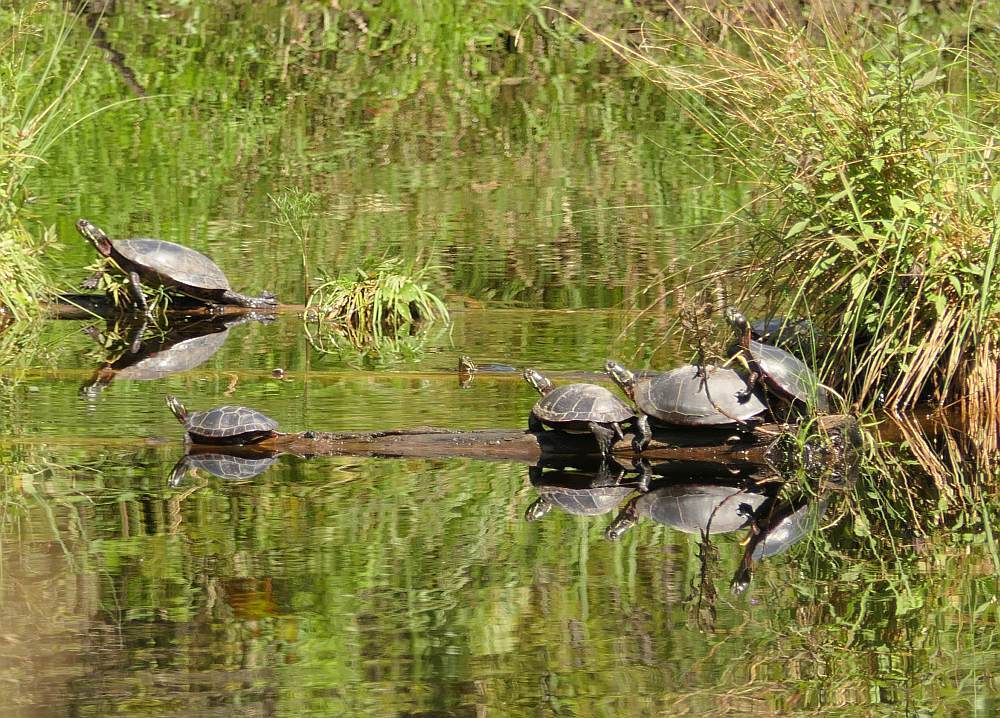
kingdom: Animalia
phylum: Chordata
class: Testudines
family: Emydidae
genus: Chrysemys
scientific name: Chrysemys picta
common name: Painted turtle
